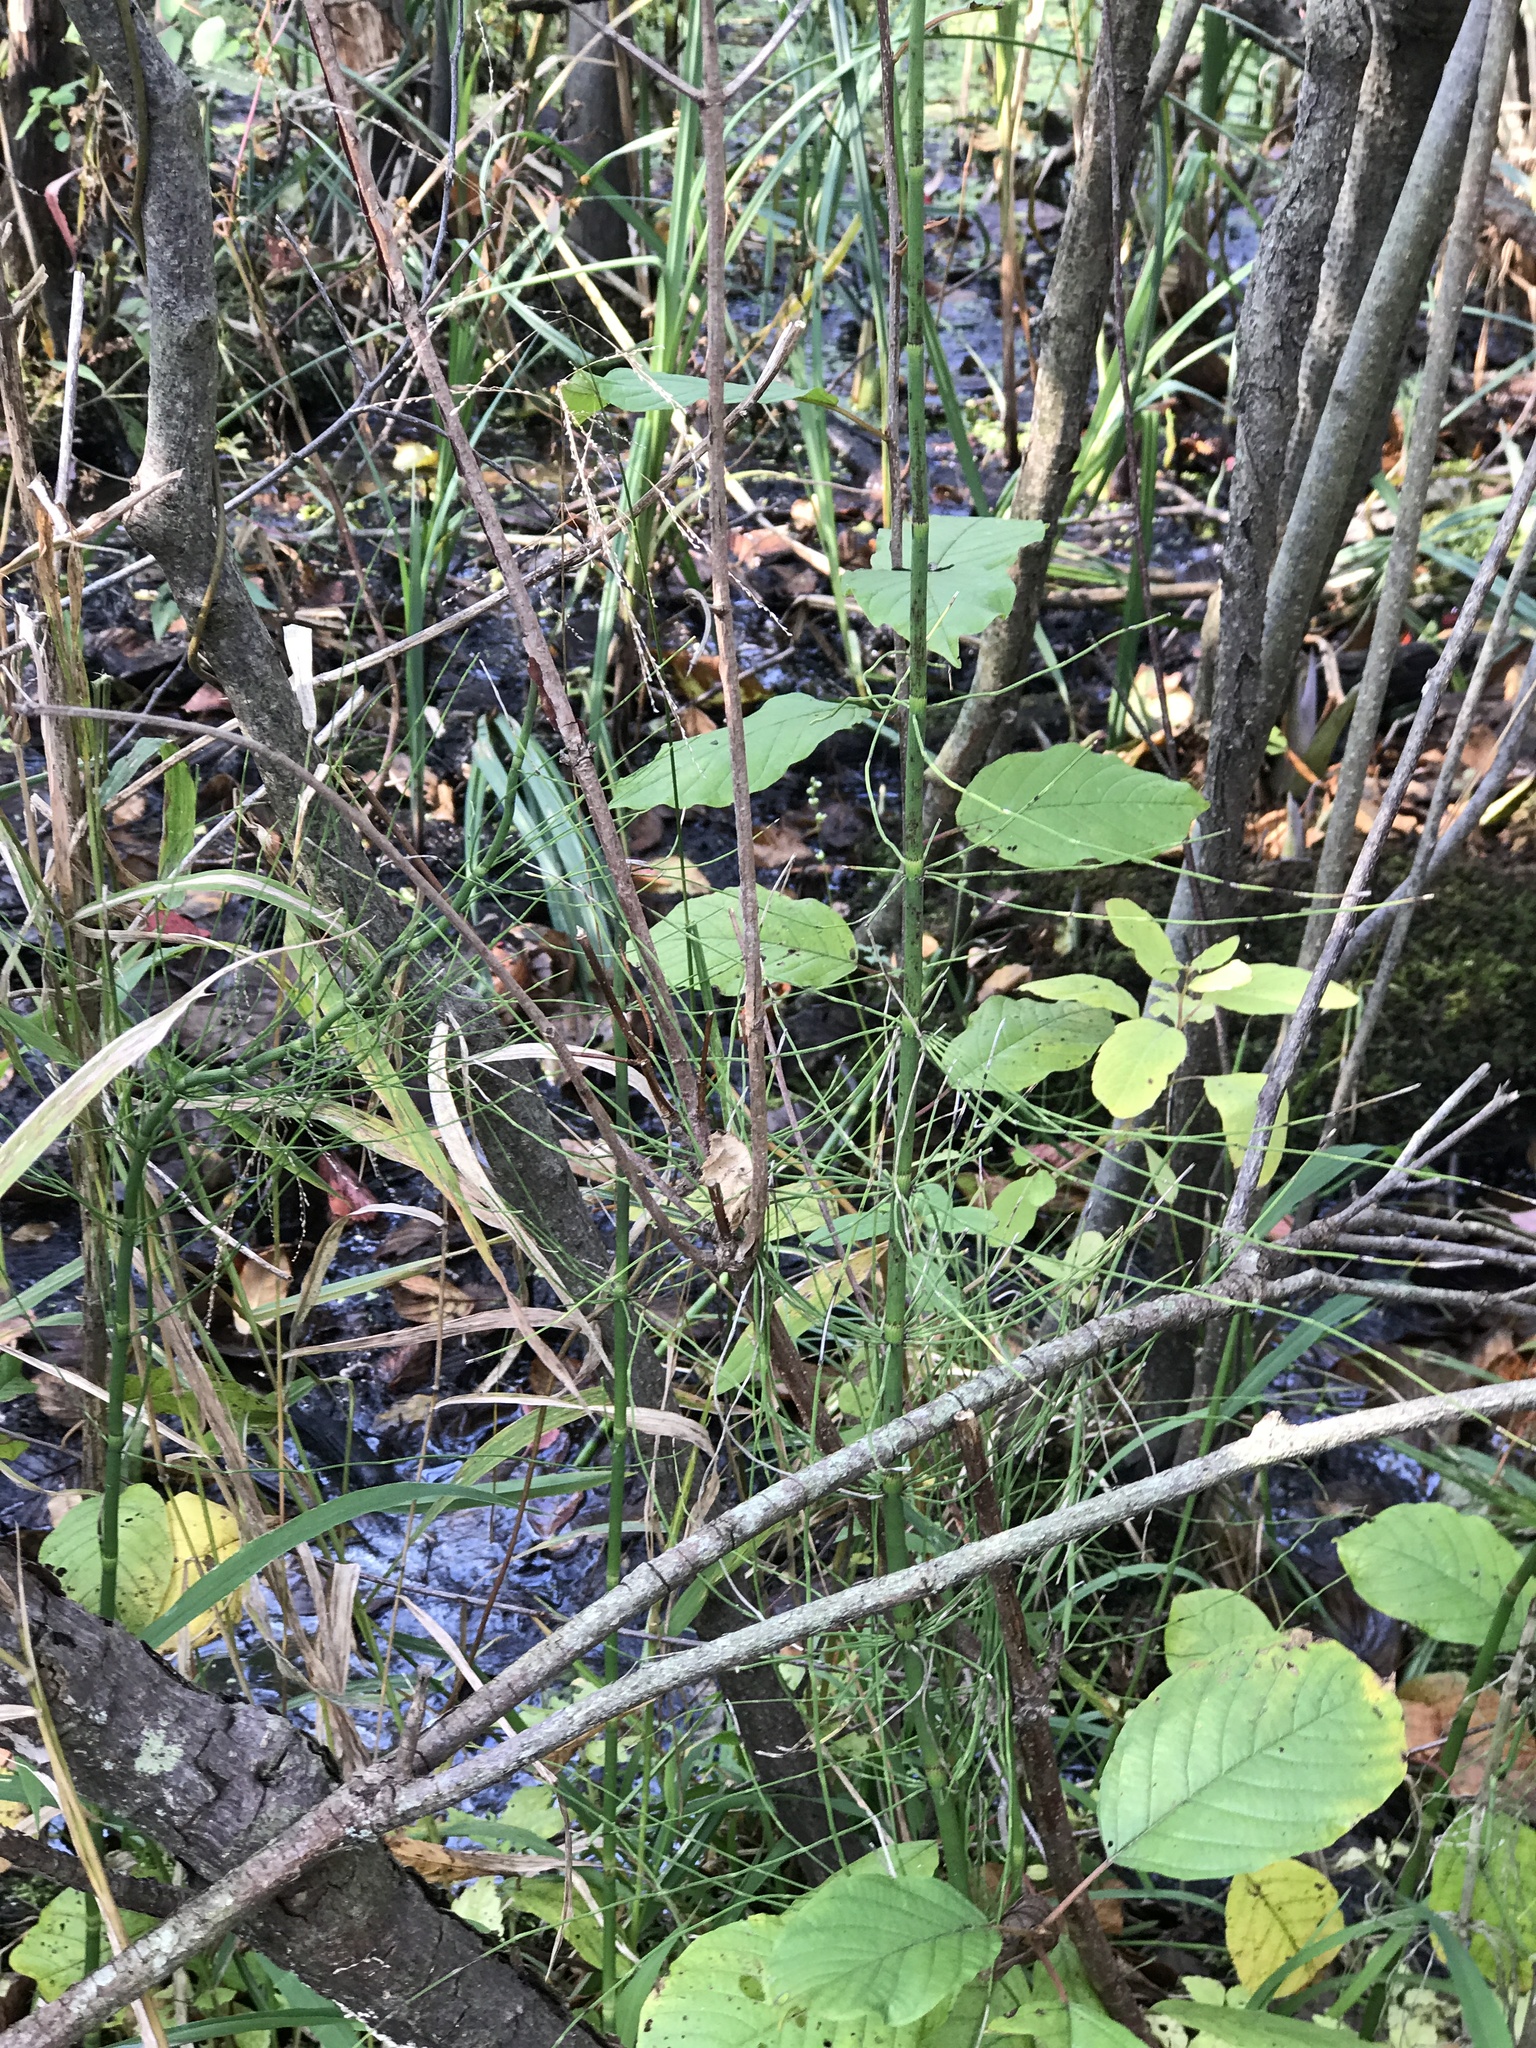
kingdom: Plantae
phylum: Tracheophyta
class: Polypodiopsida
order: Equisetales
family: Equisetaceae
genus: Equisetum
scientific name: Equisetum fluviatile
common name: Water horsetail
